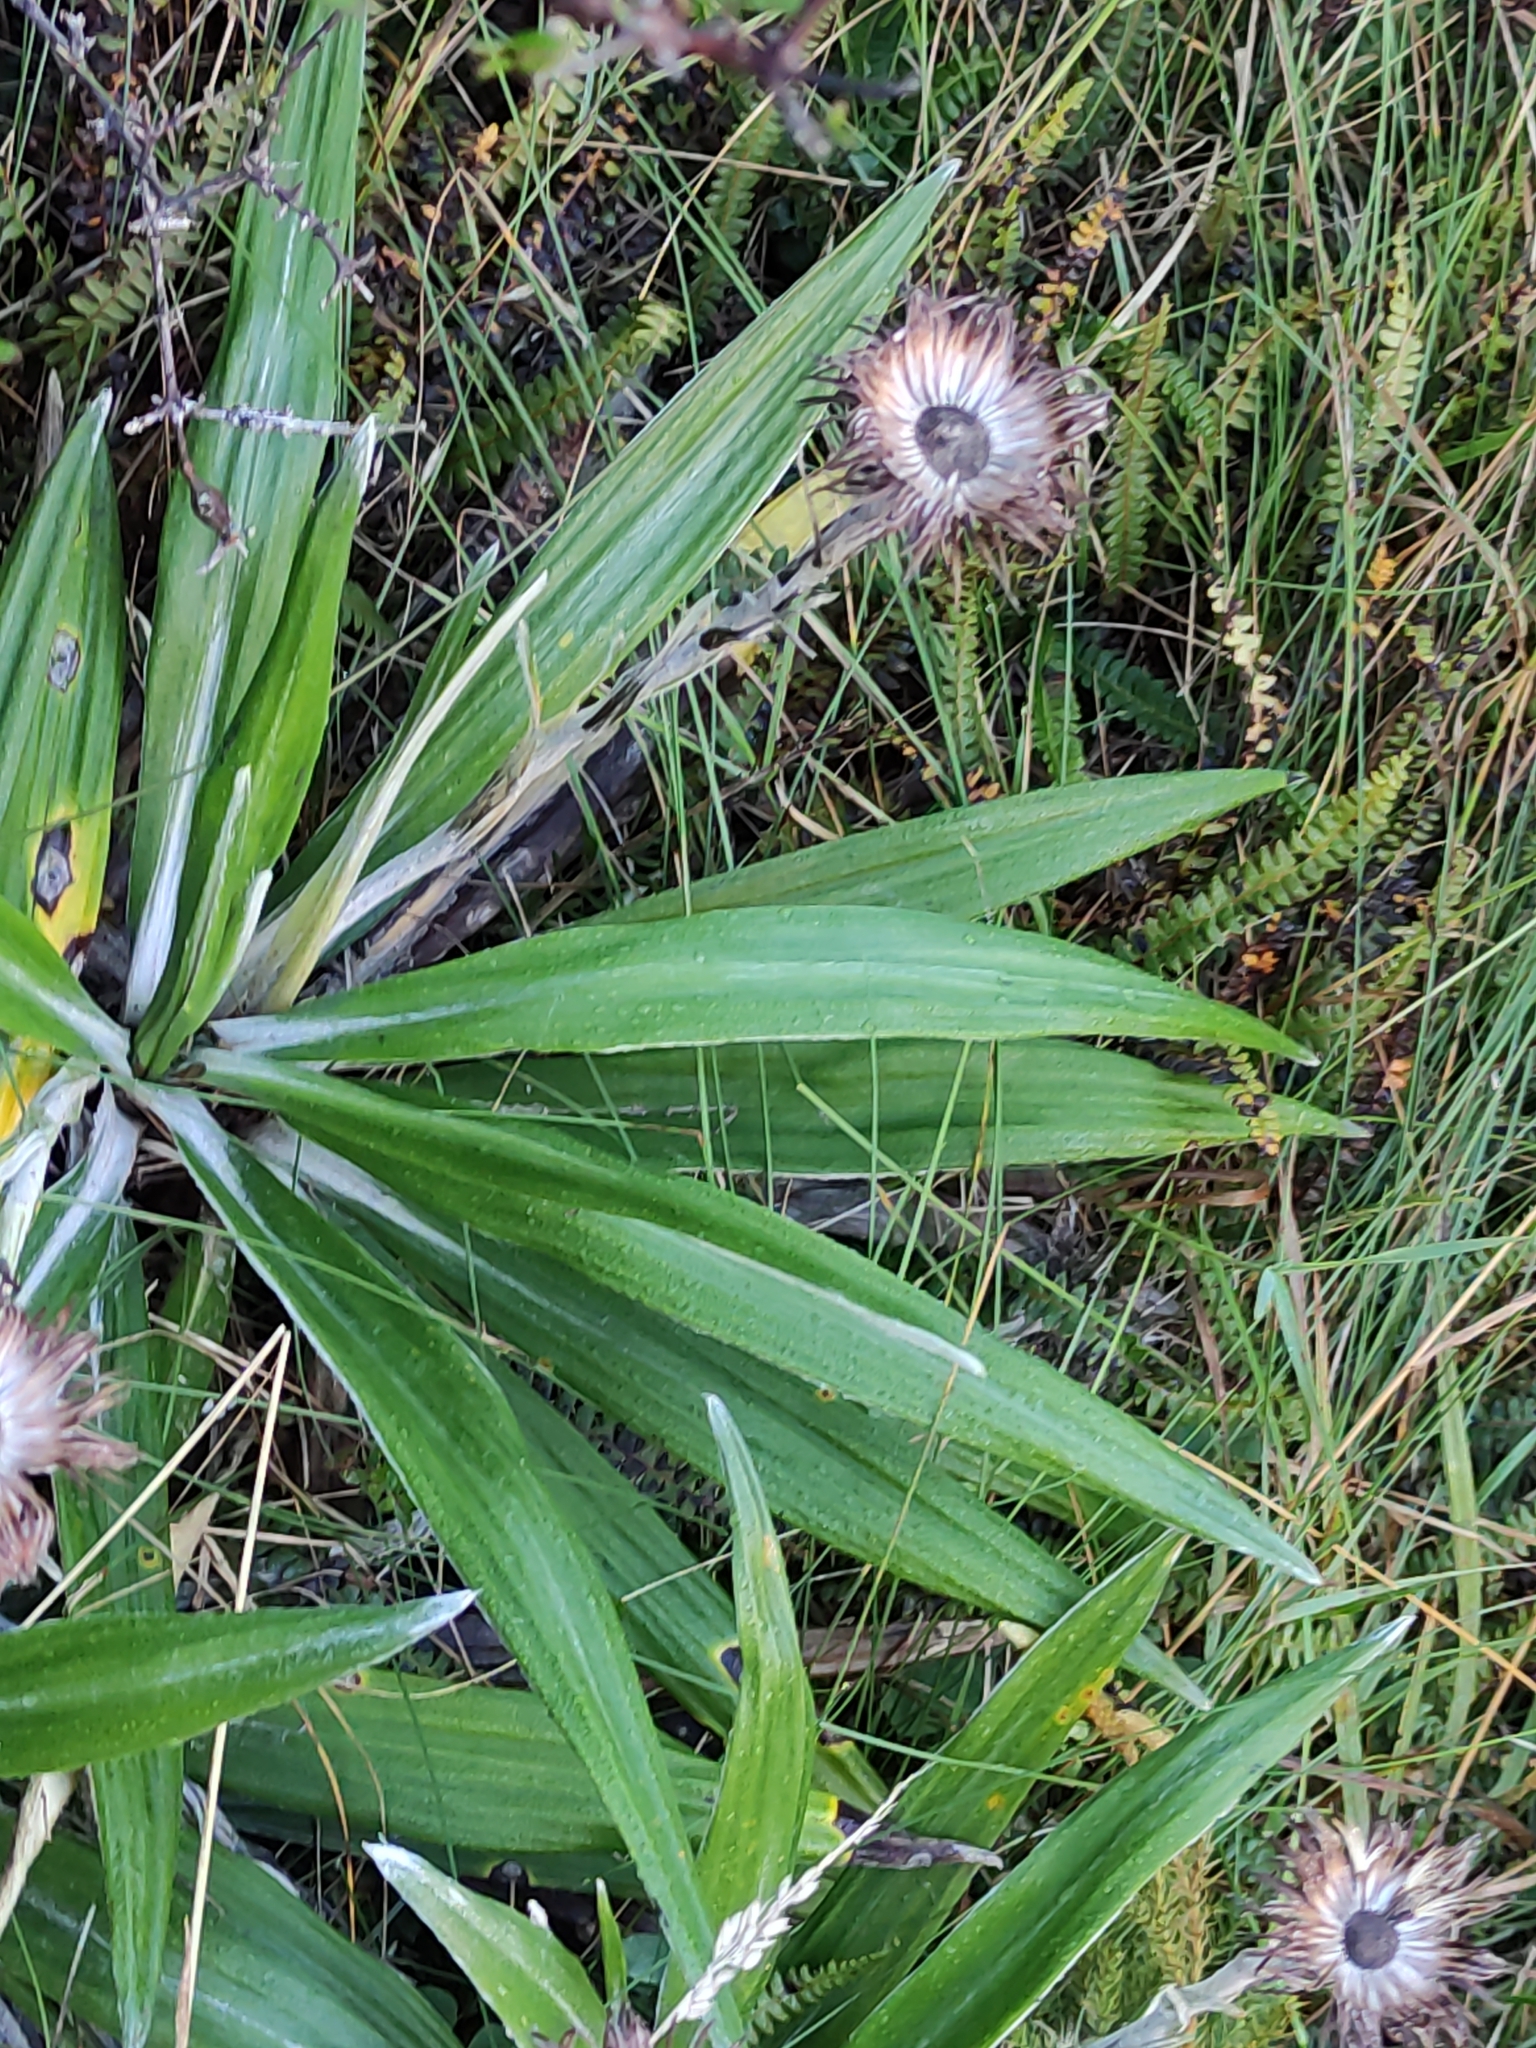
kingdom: Plantae
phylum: Tracheophyta
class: Magnoliopsida
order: Asterales
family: Asteraceae
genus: Celmisia
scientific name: Celmisia spectabilis
